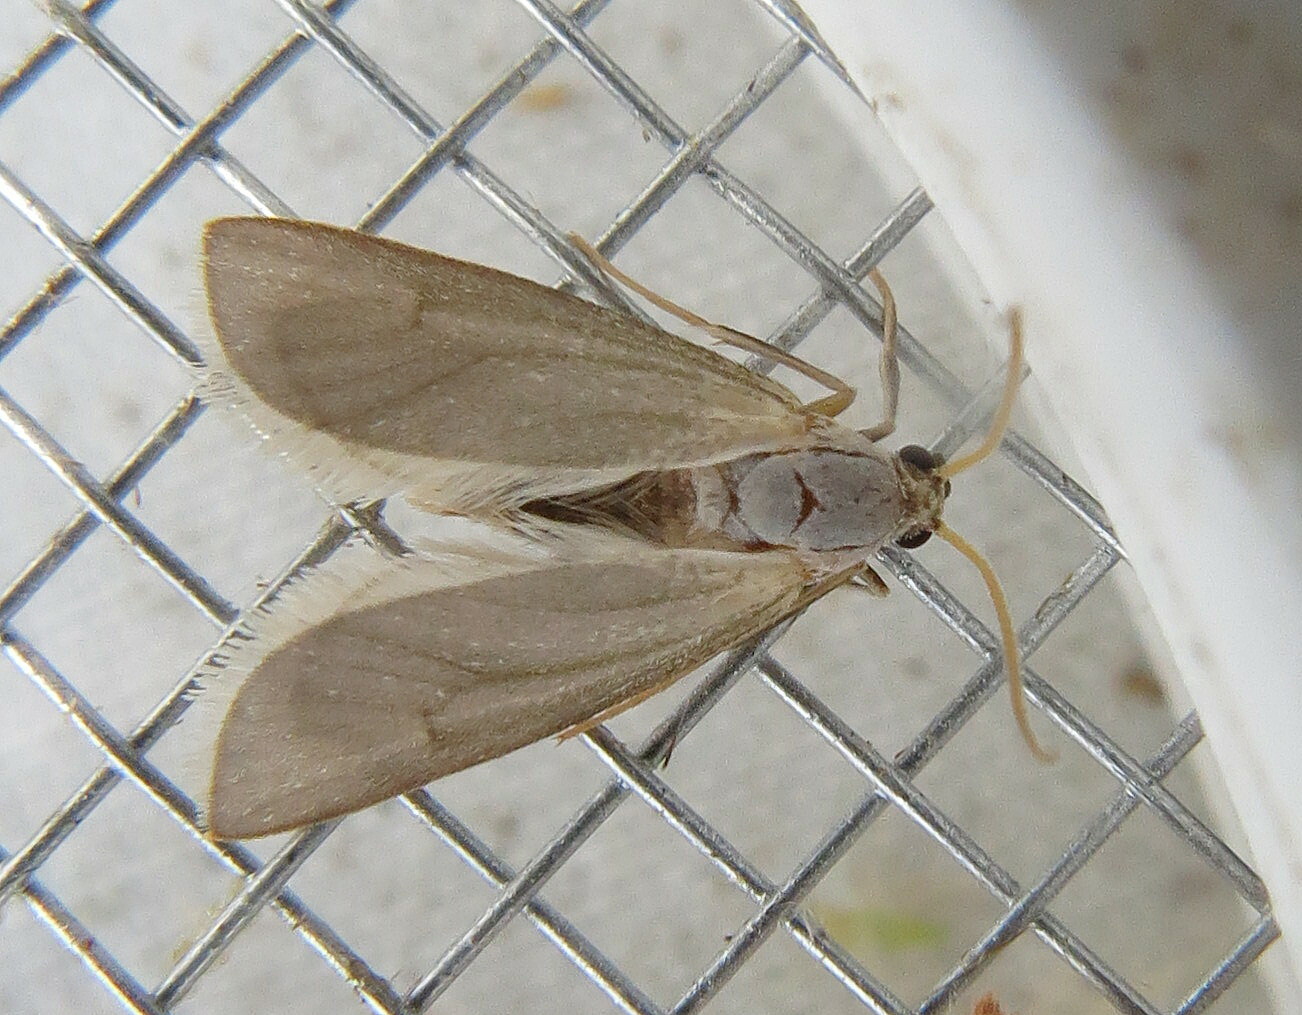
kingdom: Animalia
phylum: Arthropoda
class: Insecta
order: Lepidoptera
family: Crambidae
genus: Acentria
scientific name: Acentria ephemerella
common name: European water moth
